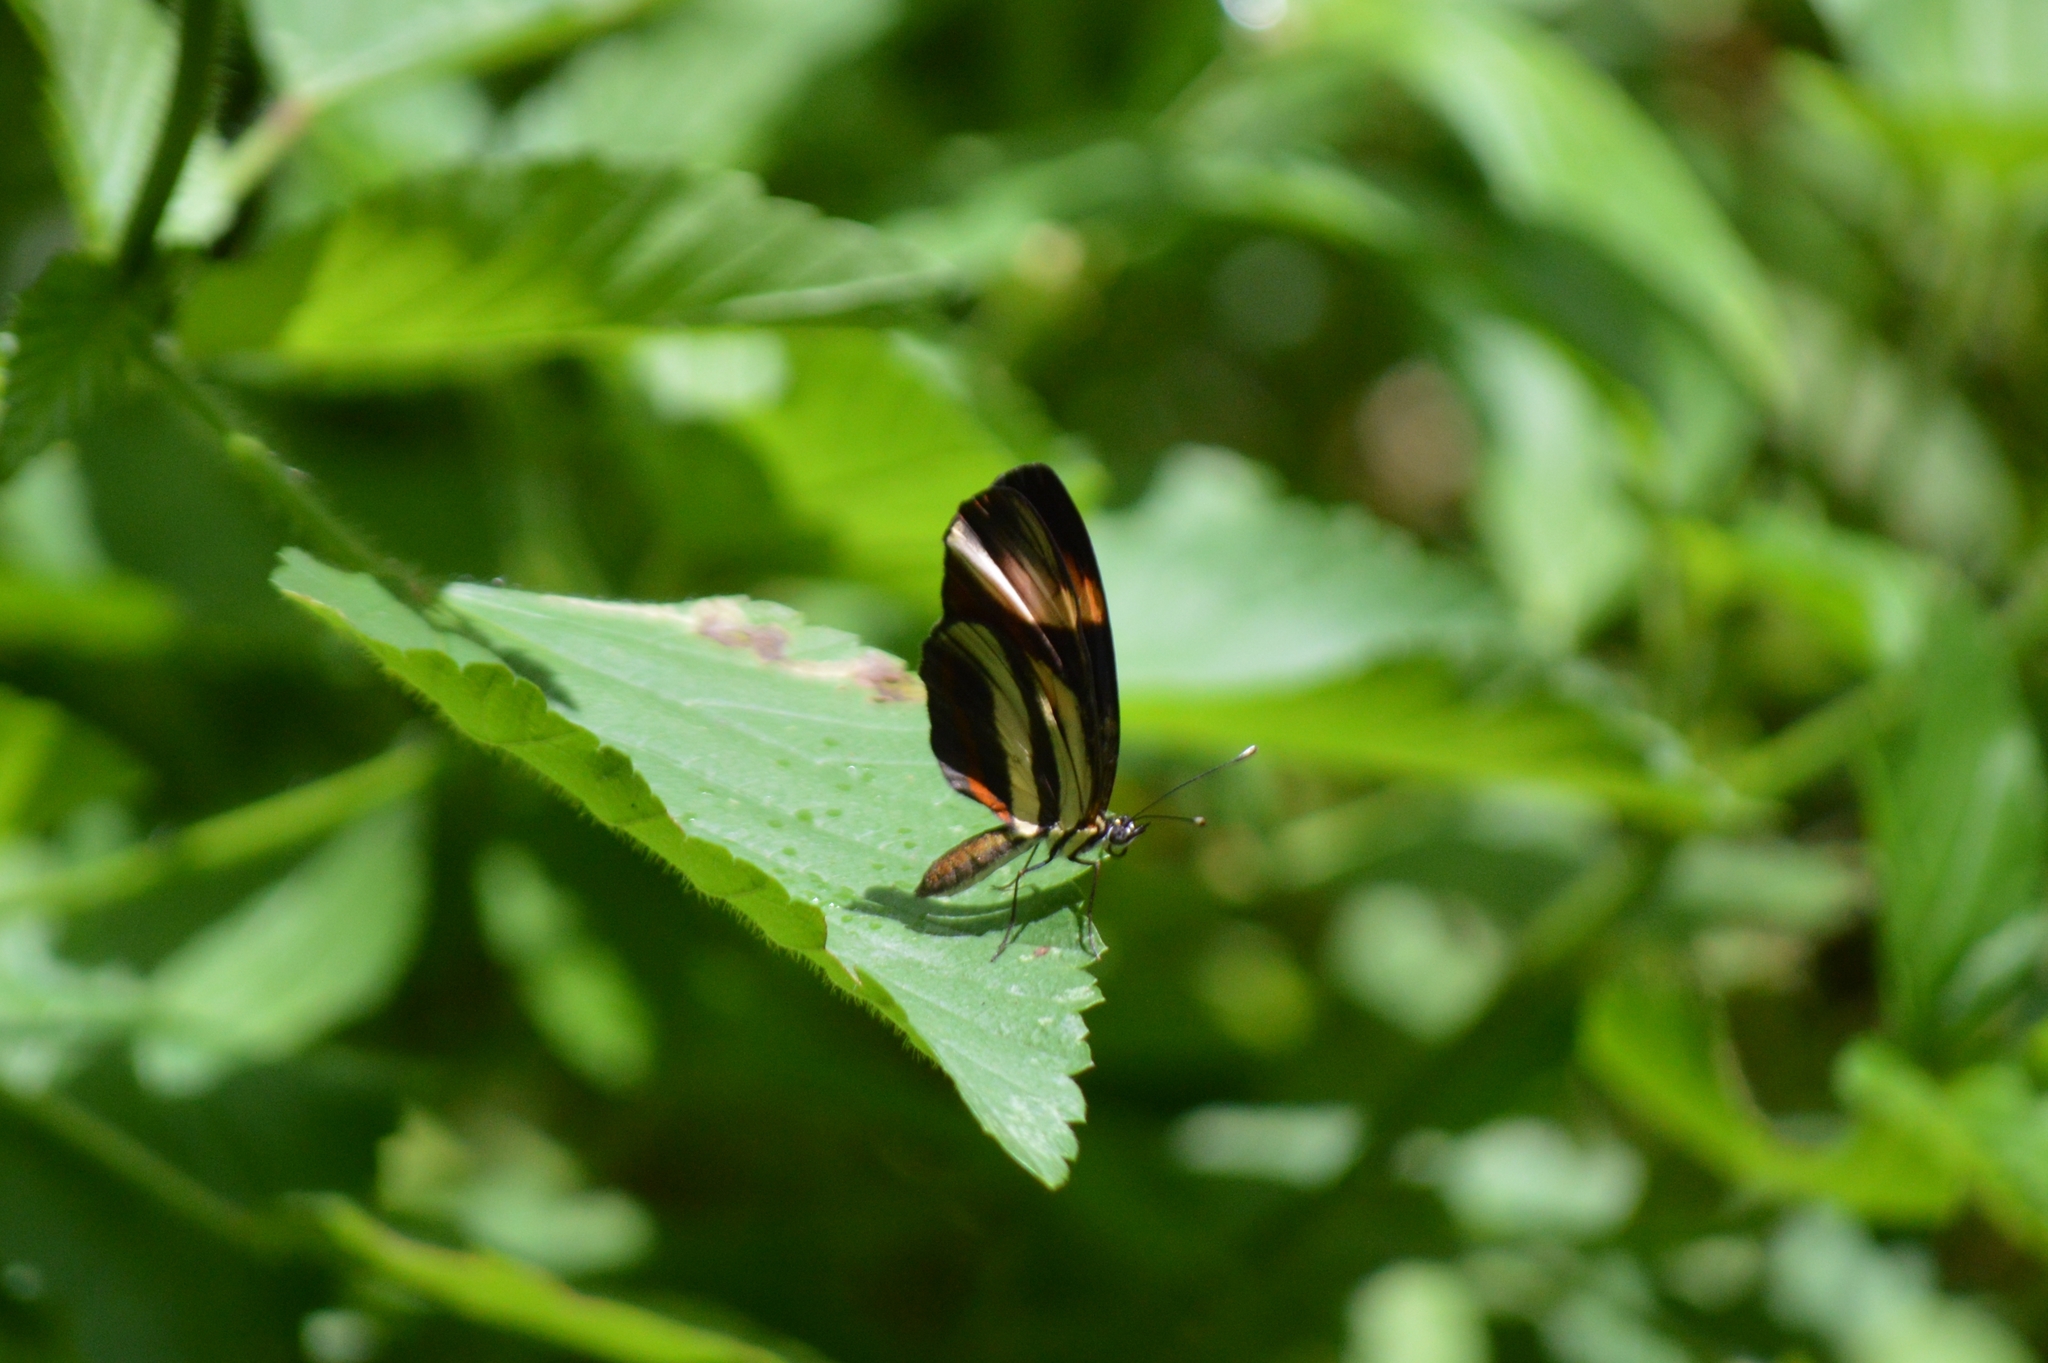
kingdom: Animalia
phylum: Arthropoda
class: Insecta
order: Lepidoptera
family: Nymphalidae
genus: Eresia
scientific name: Eresia lansdorfi
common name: Lansdorf's crescent
